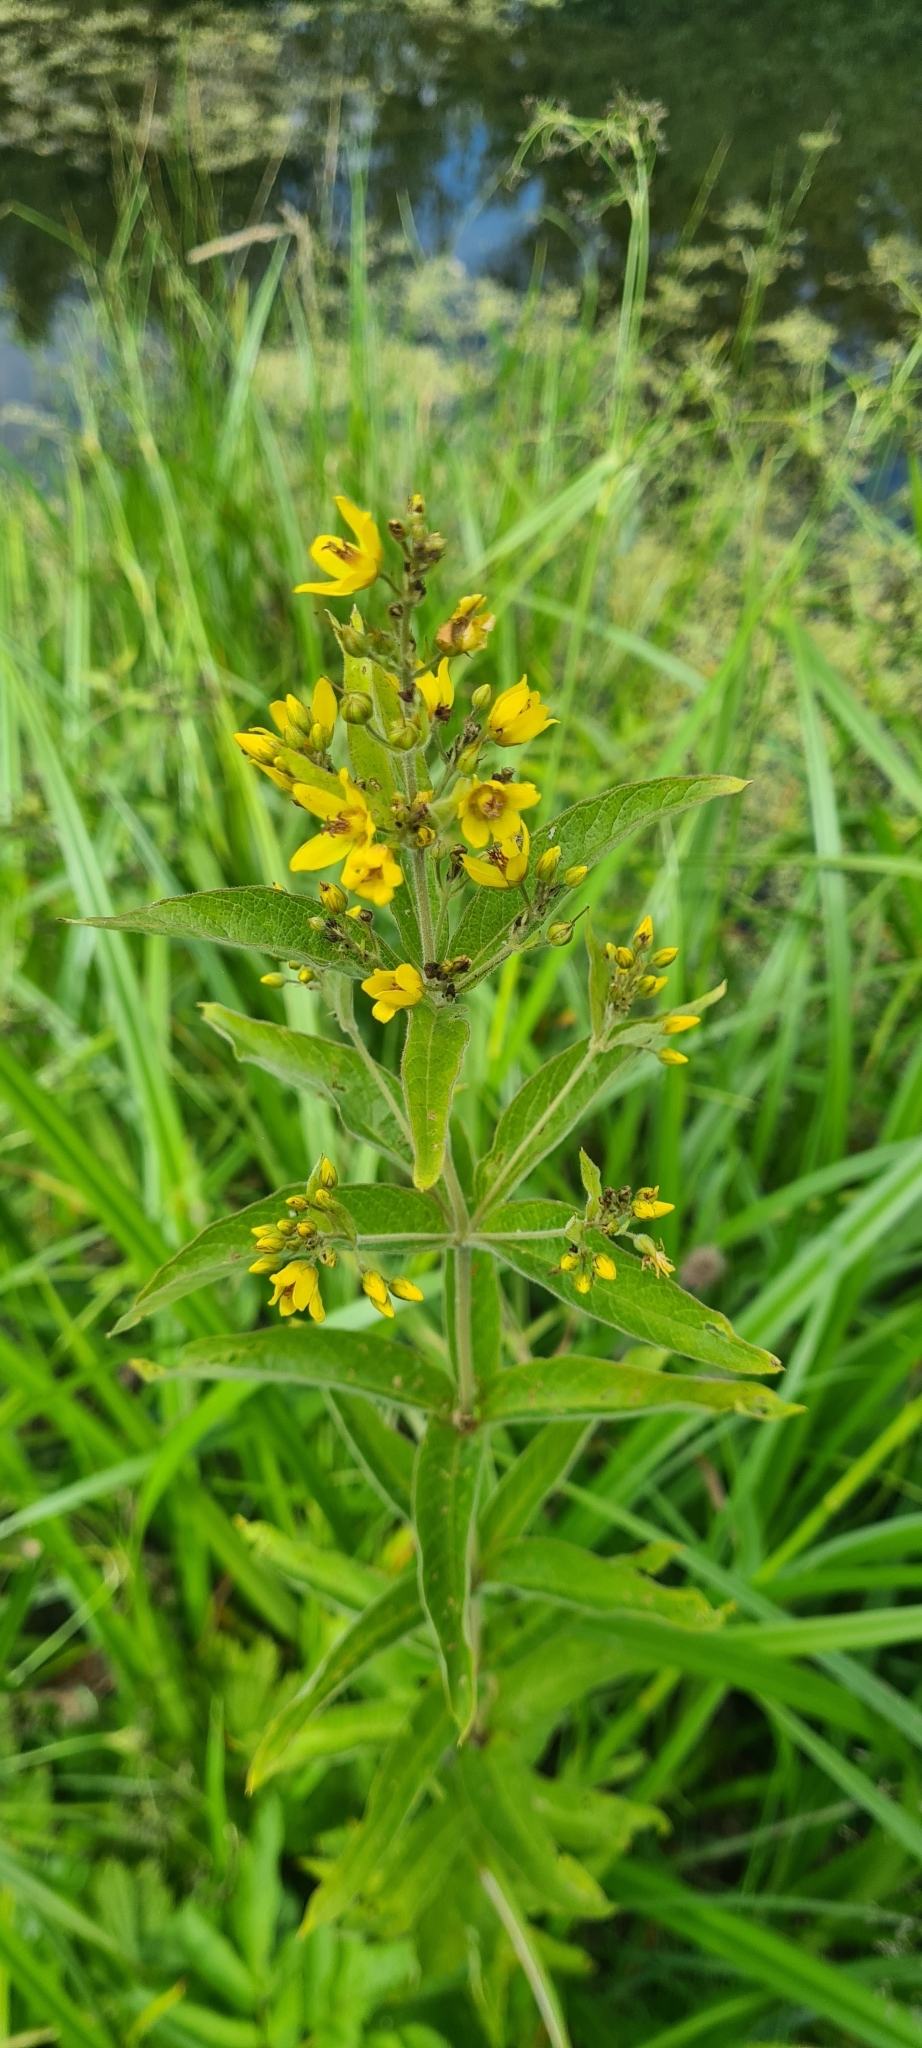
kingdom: Plantae
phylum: Tracheophyta
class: Magnoliopsida
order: Ericales
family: Primulaceae
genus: Lysimachia
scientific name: Lysimachia vulgaris
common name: Yellow loosestrife
